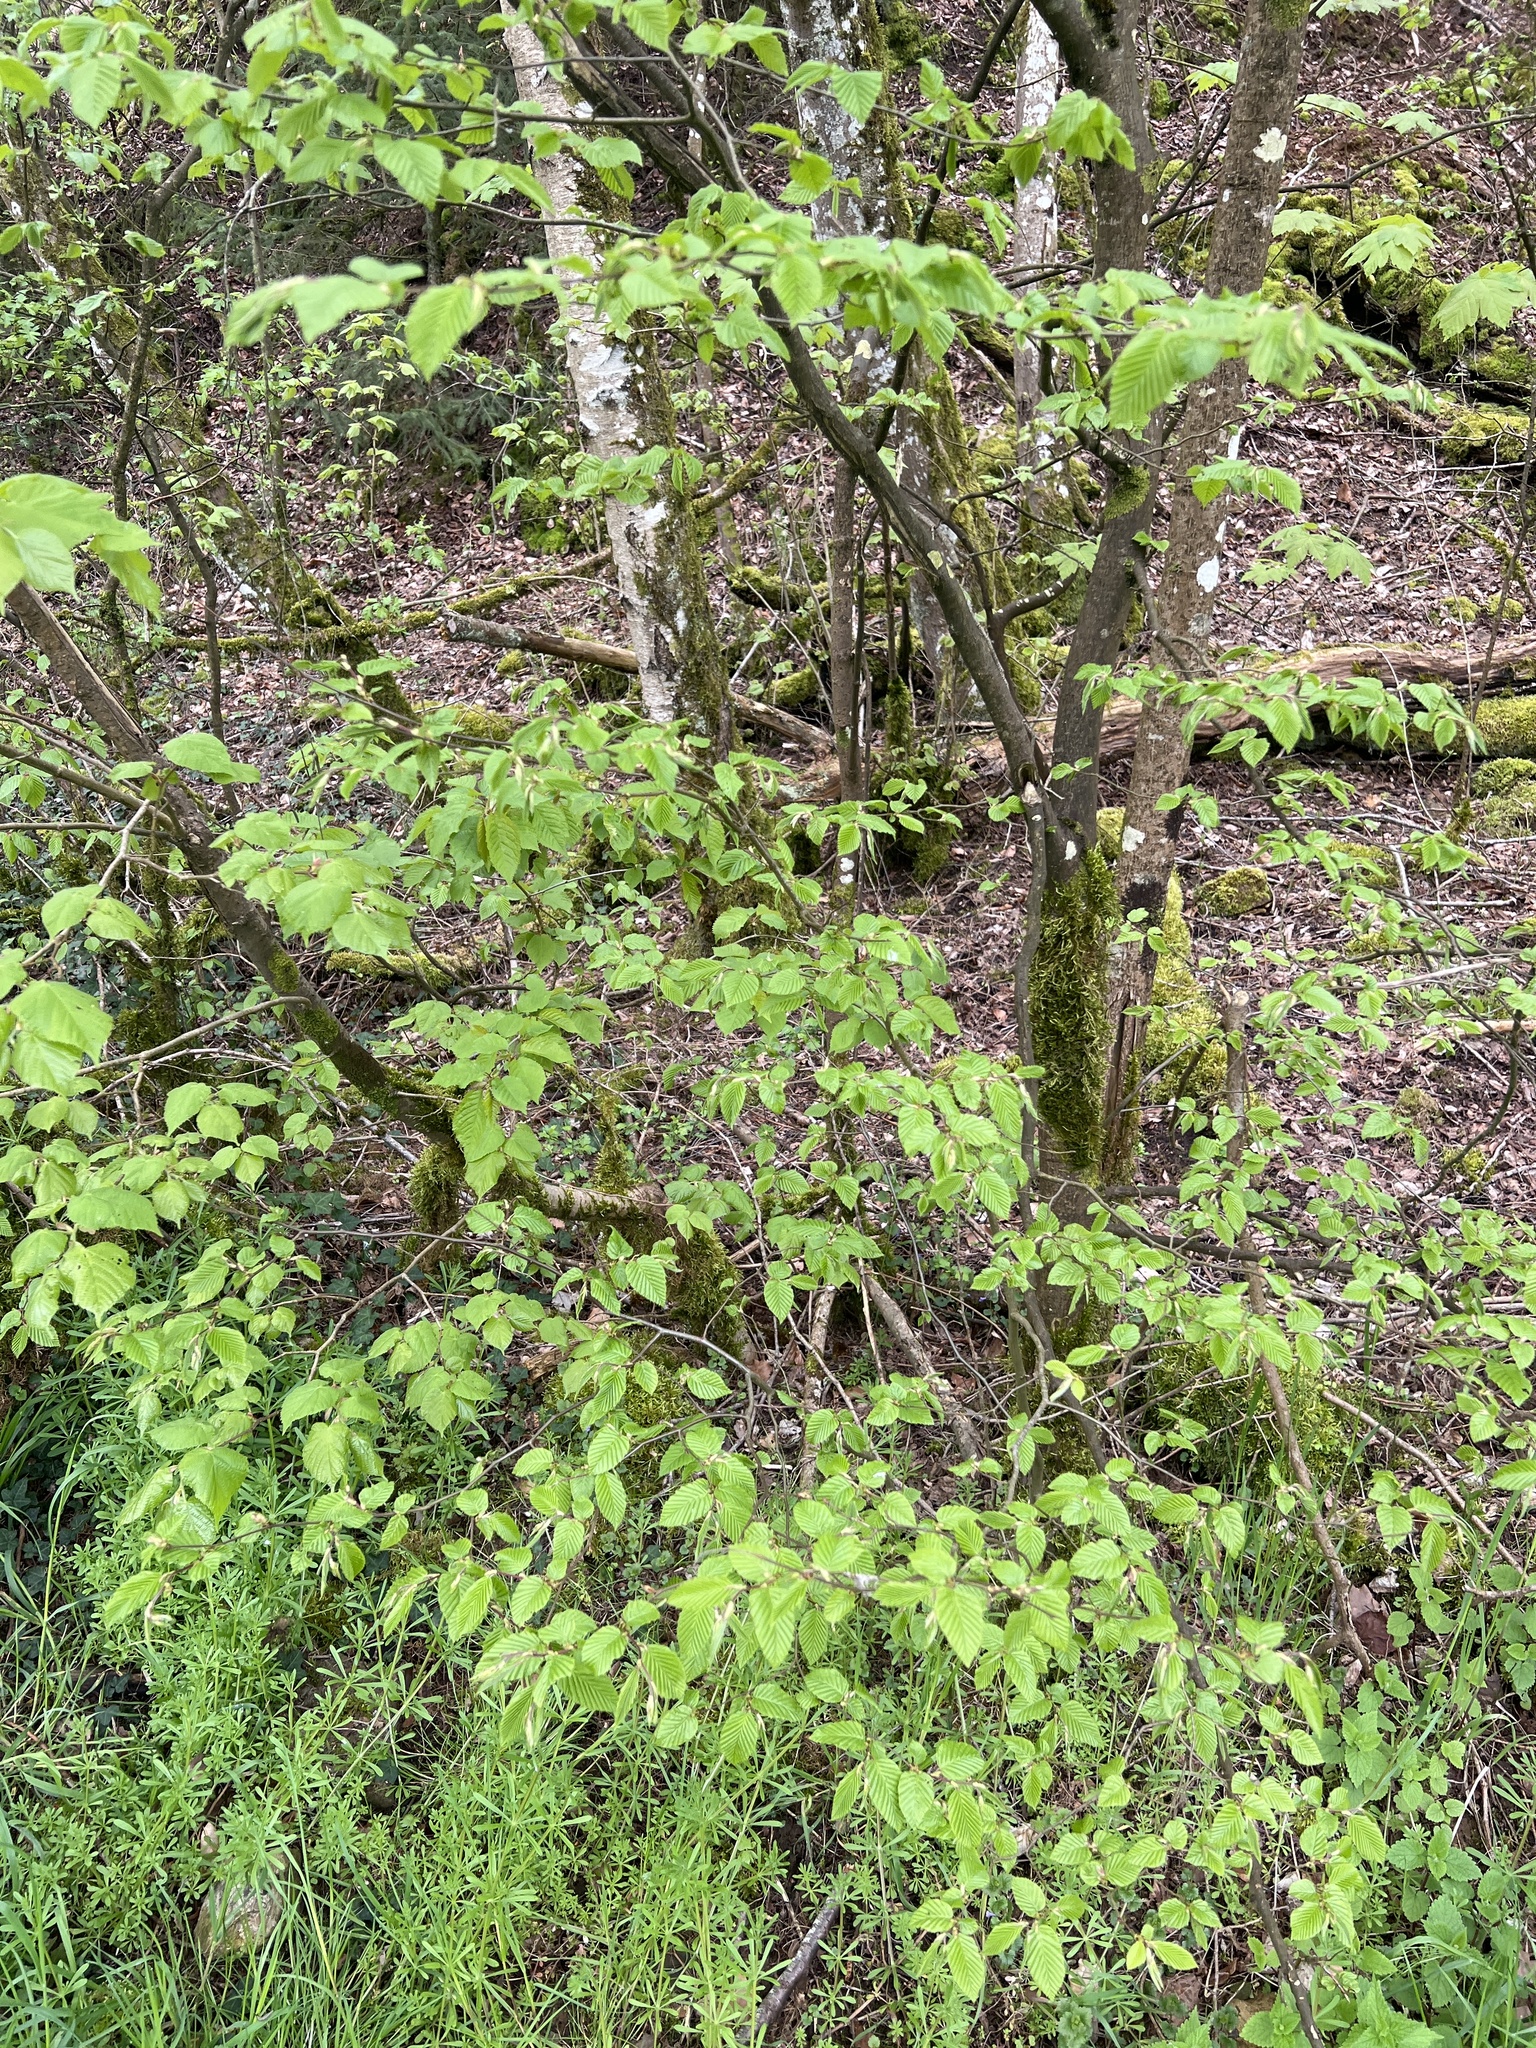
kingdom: Plantae
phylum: Tracheophyta
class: Magnoliopsida
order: Fagales
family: Betulaceae
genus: Carpinus
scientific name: Carpinus betulus
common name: Hornbeam
